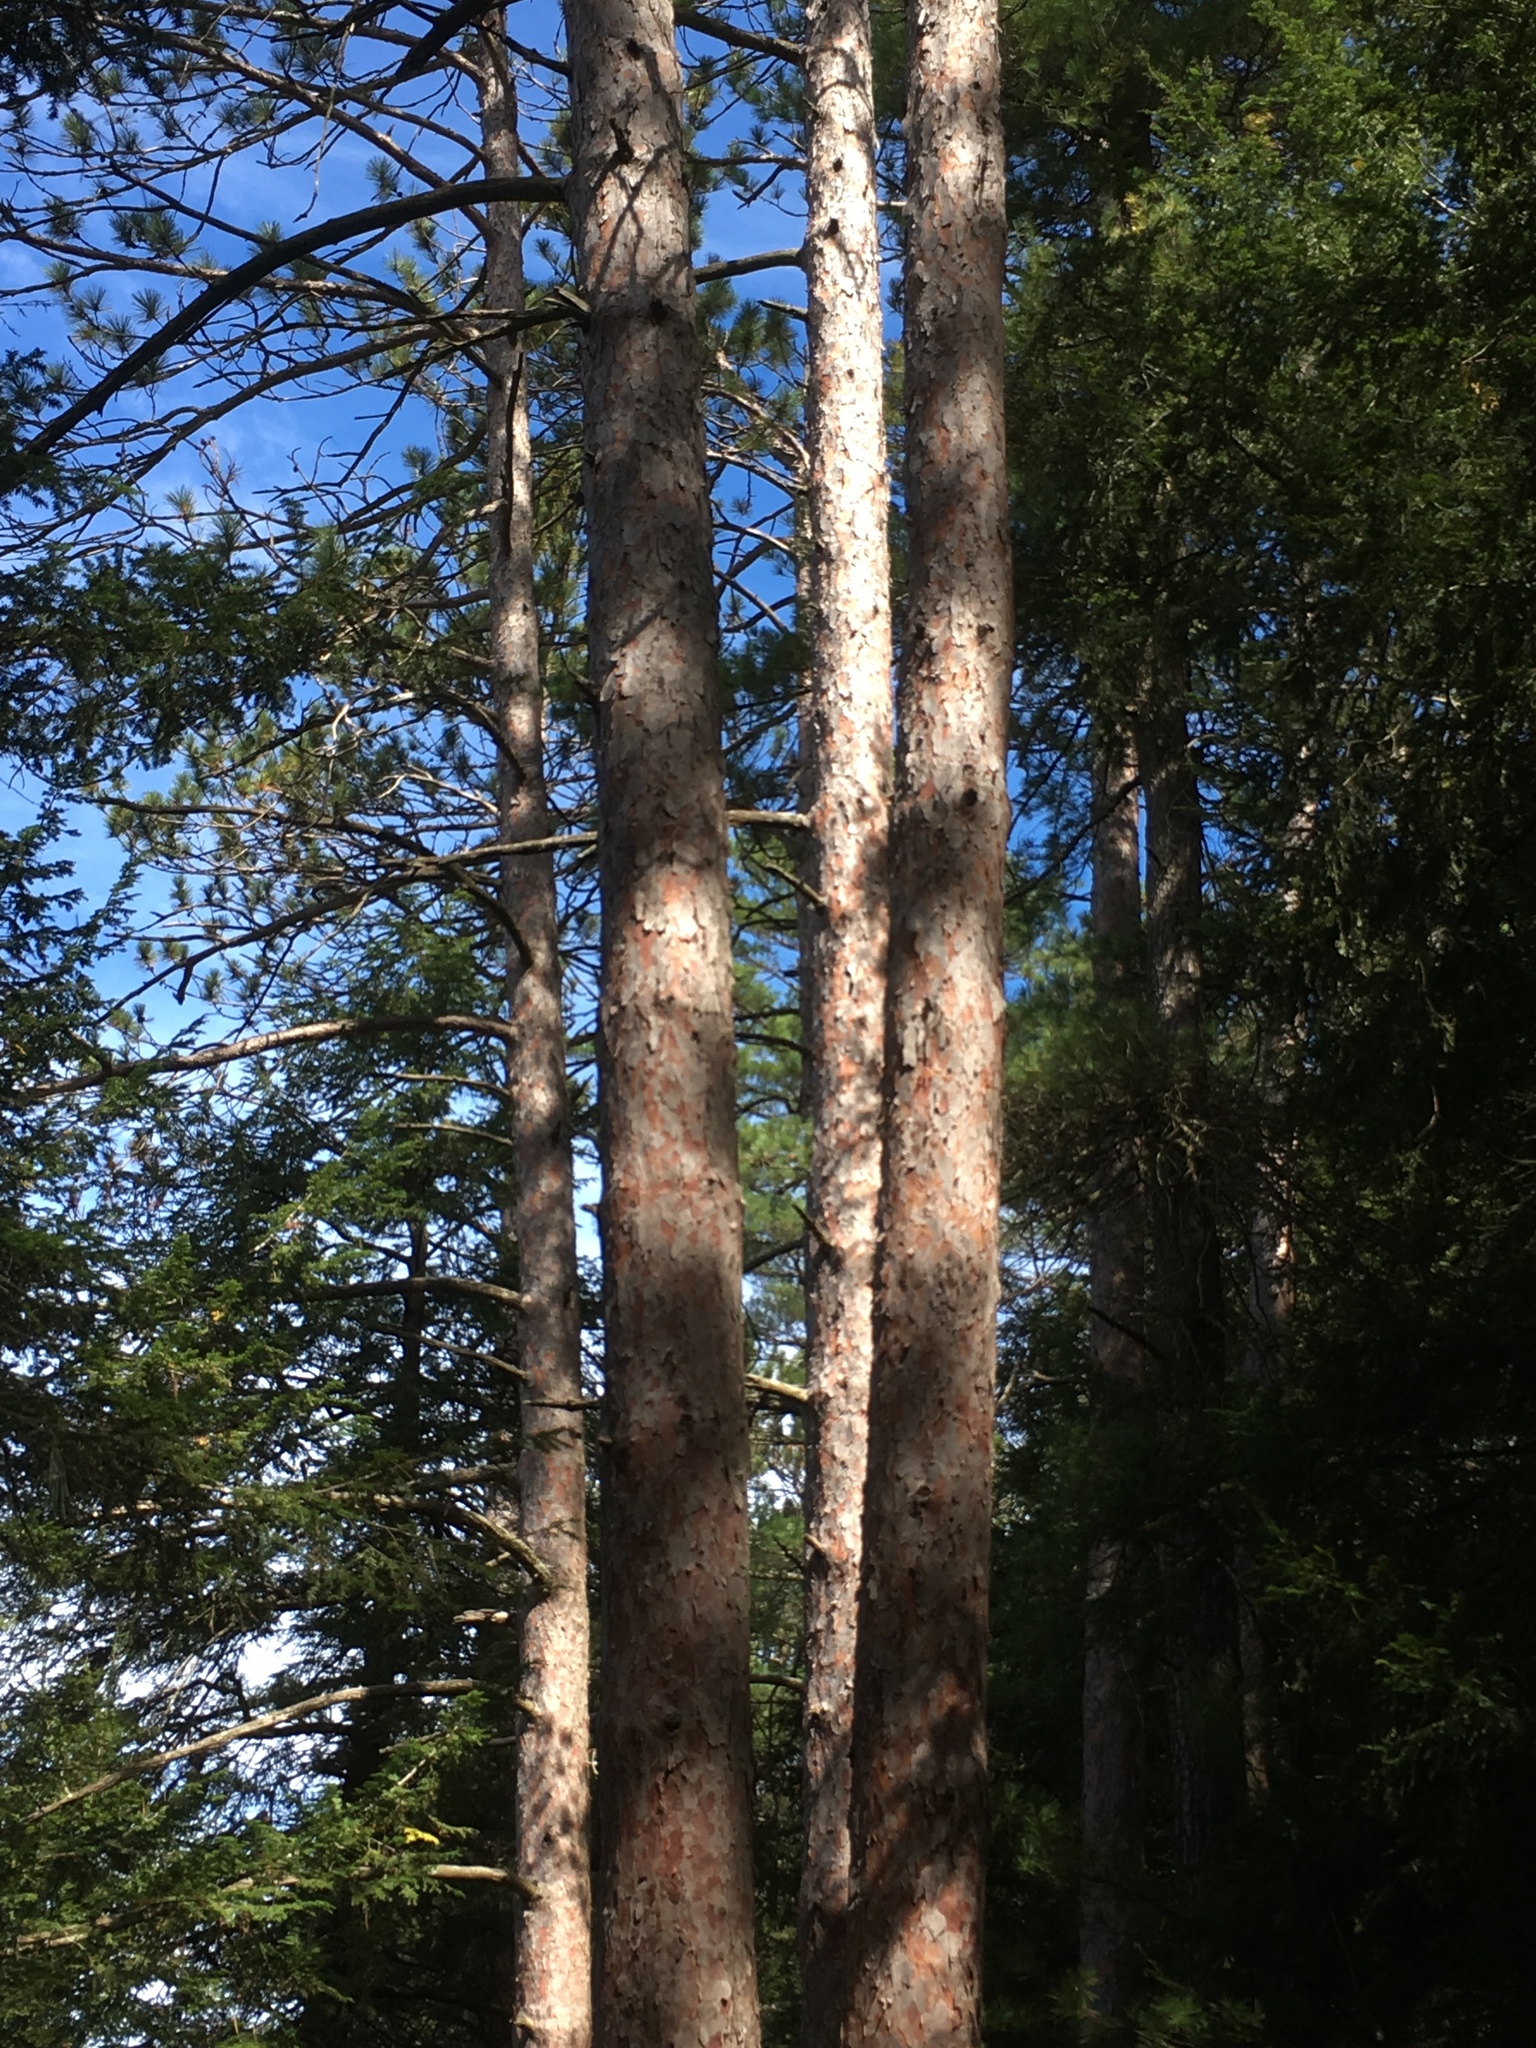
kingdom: Plantae
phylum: Tracheophyta
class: Pinopsida
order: Pinales
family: Pinaceae
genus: Pinus
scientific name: Pinus resinosa
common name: Norway pine
